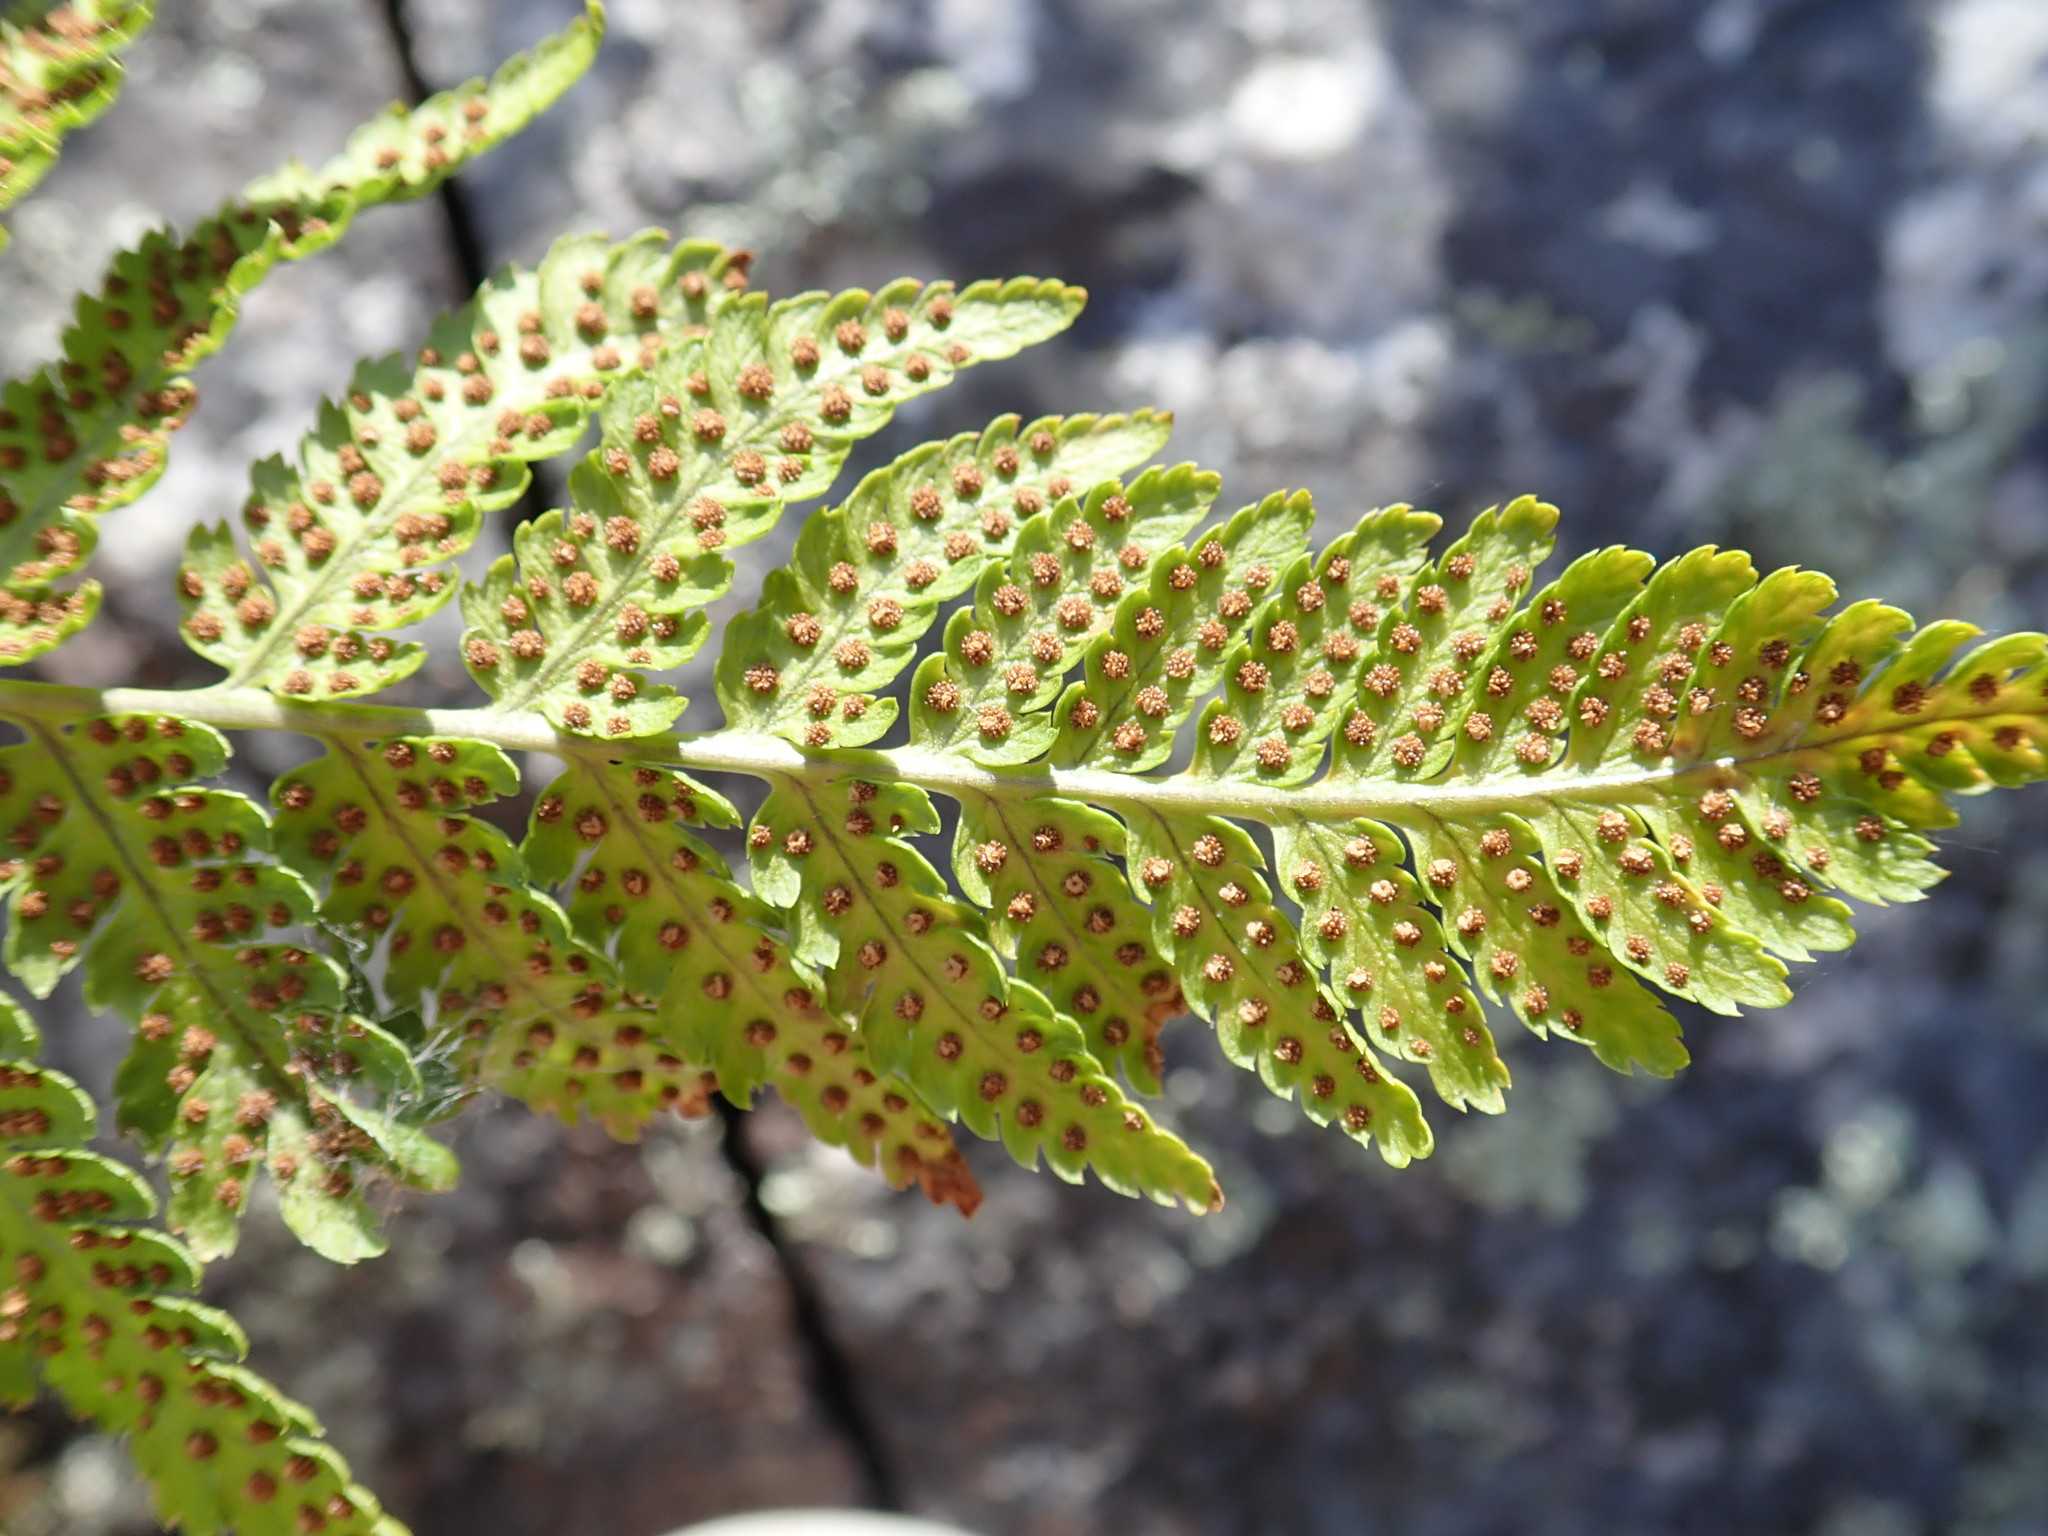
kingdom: Plantae
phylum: Tracheophyta
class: Polypodiopsida
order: Polypodiales
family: Dryopteridaceae
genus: Dryopteris
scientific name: Dryopteris intermedia
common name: Evergreen wood fern
